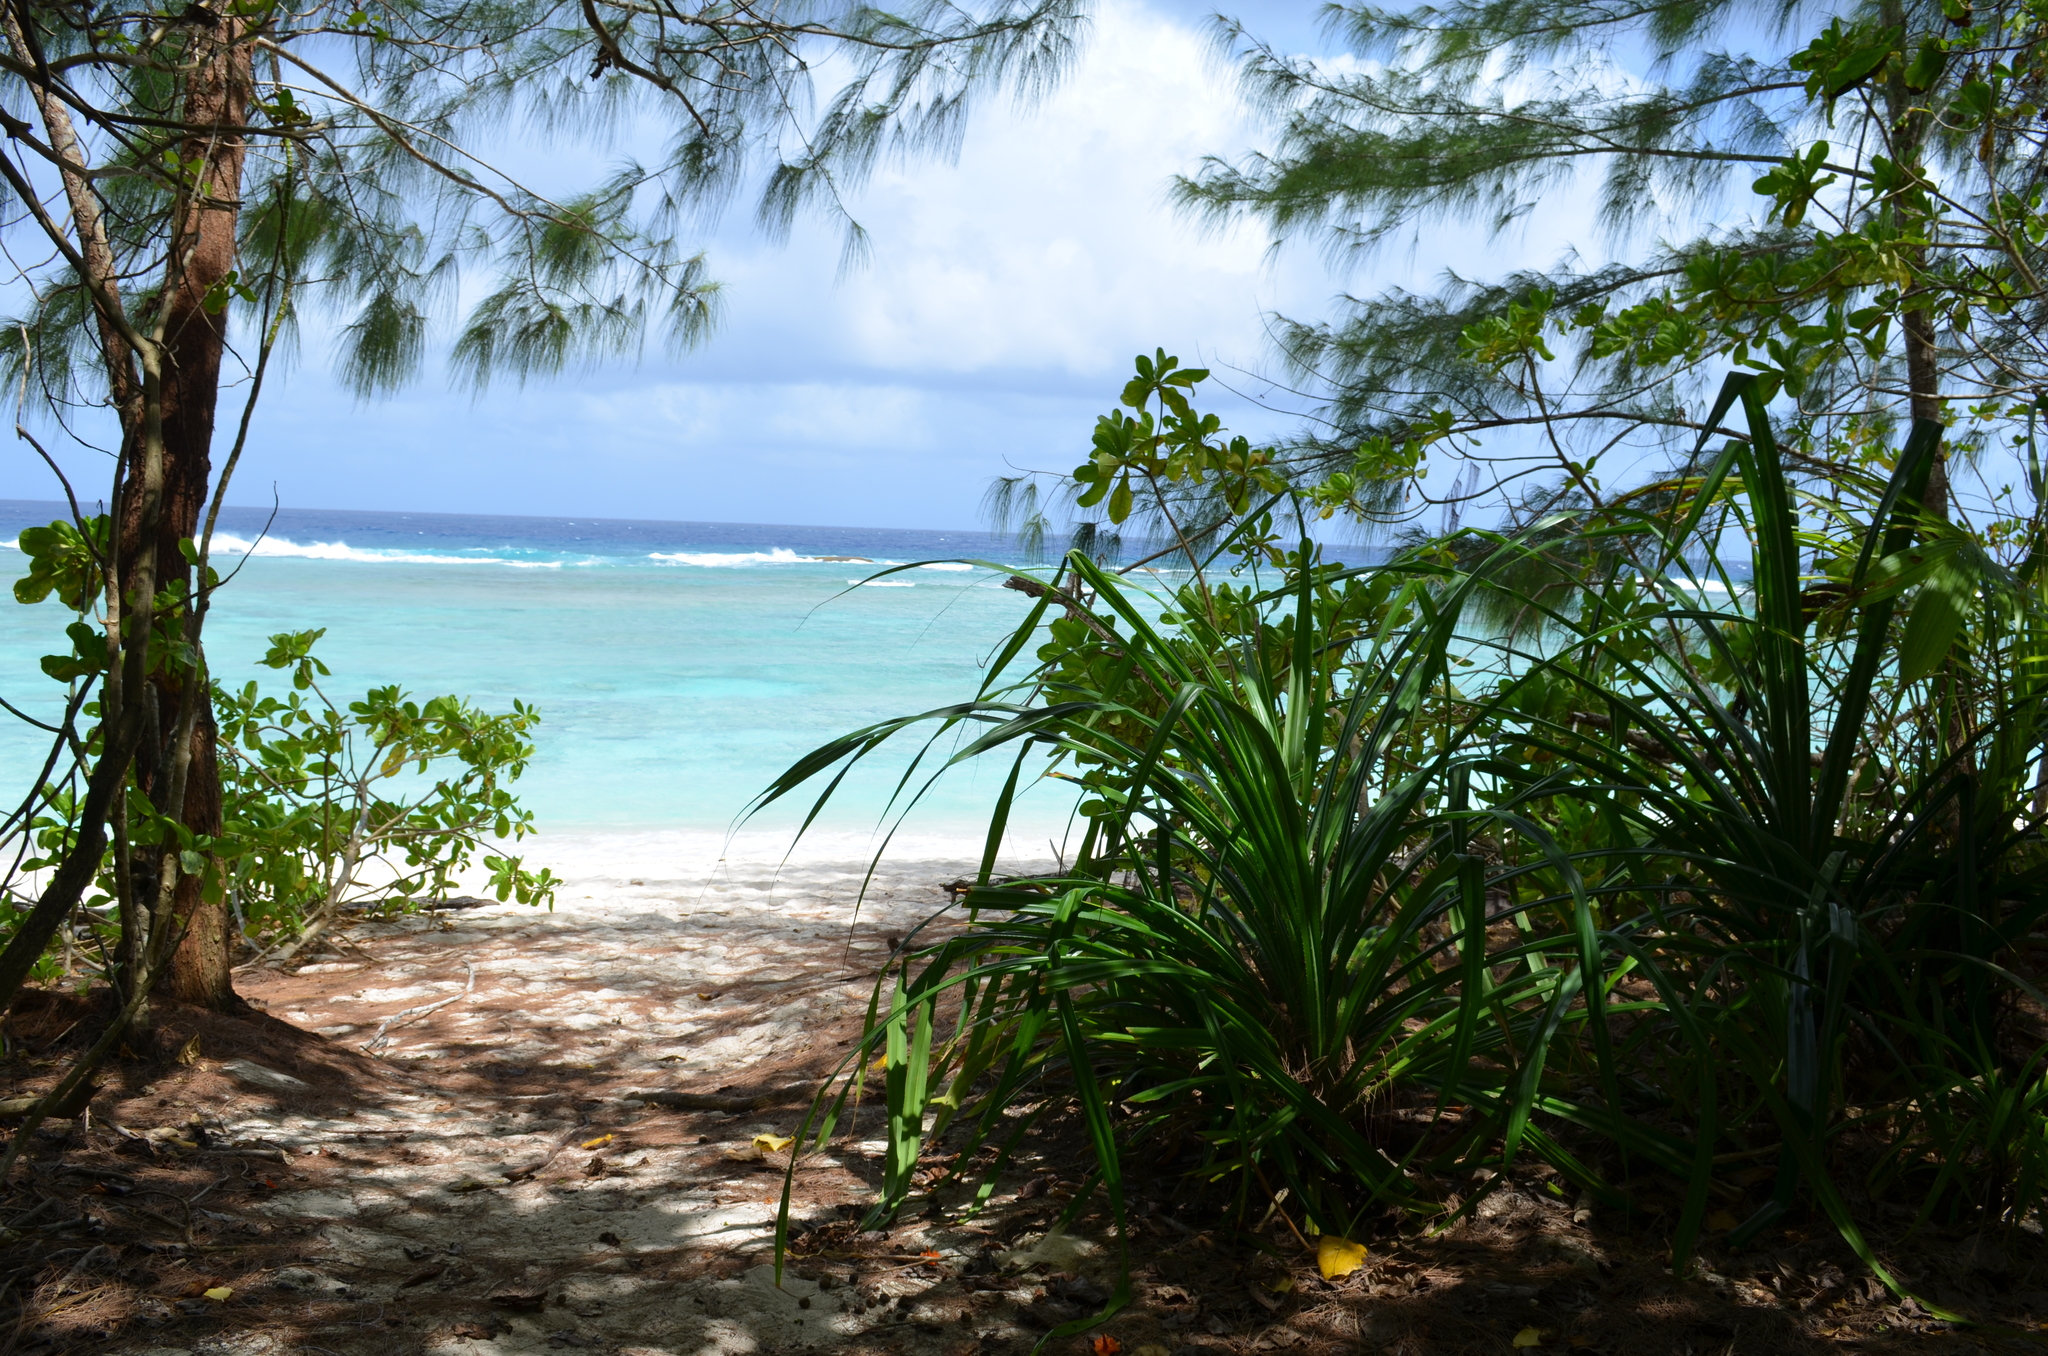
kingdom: Plantae
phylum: Tracheophyta
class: Liliopsida
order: Pandanales
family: Pandanaceae
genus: Pandanus
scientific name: Pandanus tectorius
